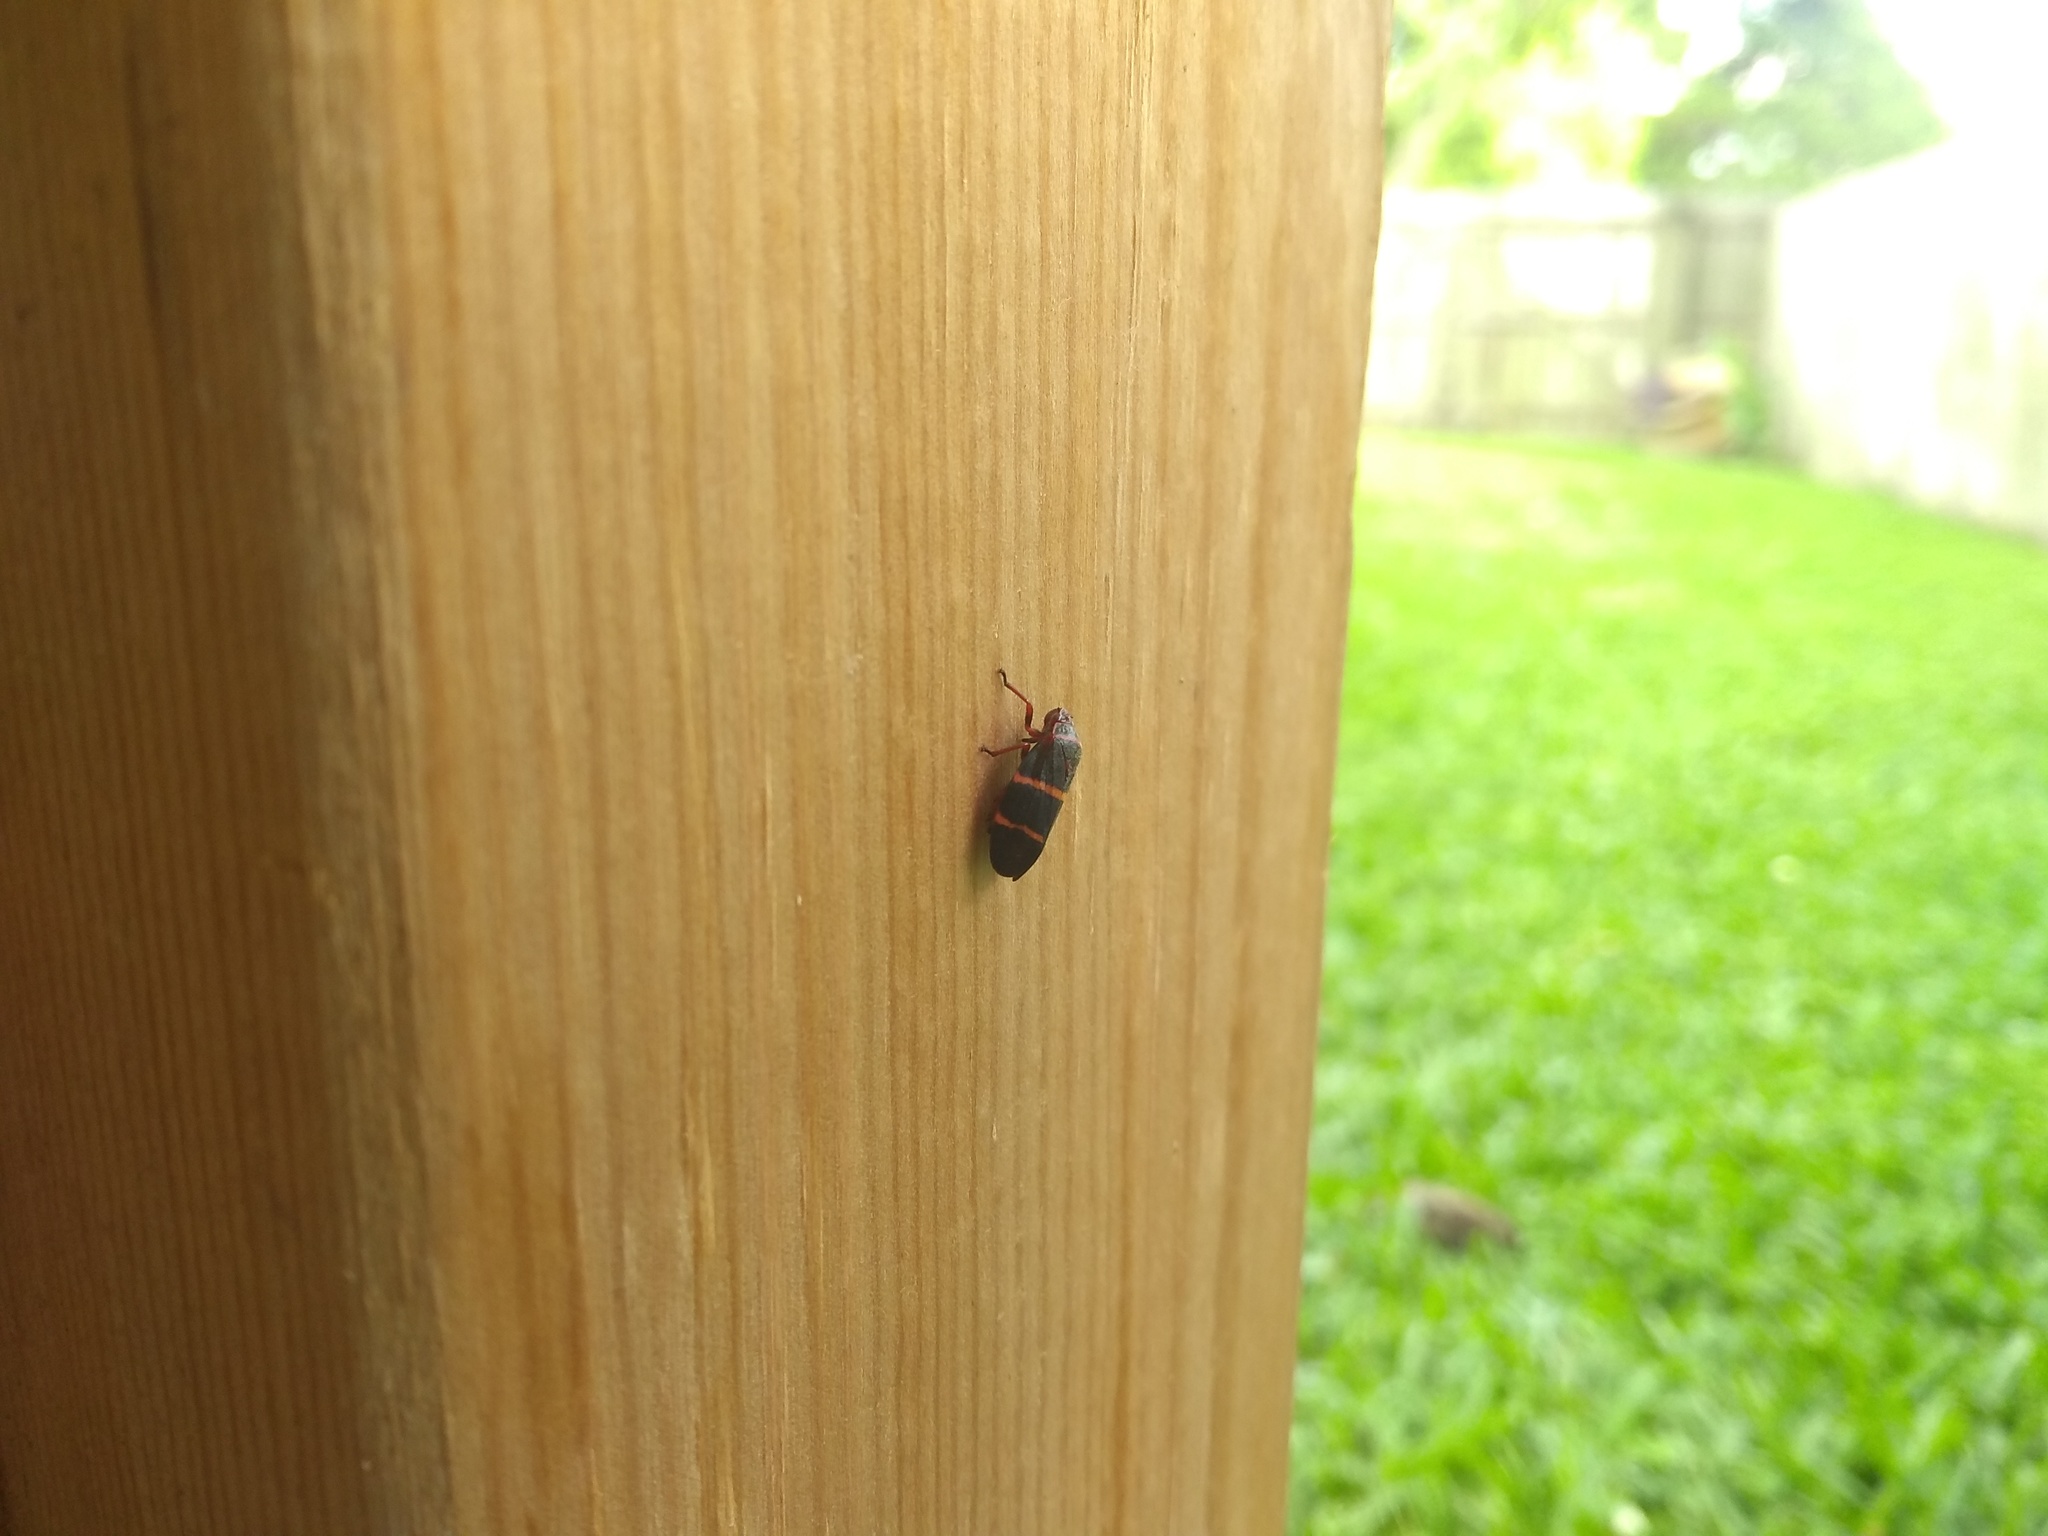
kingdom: Animalia
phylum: Arthropoda
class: Insecta
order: Hemiptera
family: Cercopidae
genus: Prosapia
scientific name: Prosapia bicincta
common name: Twolined spittlebug
